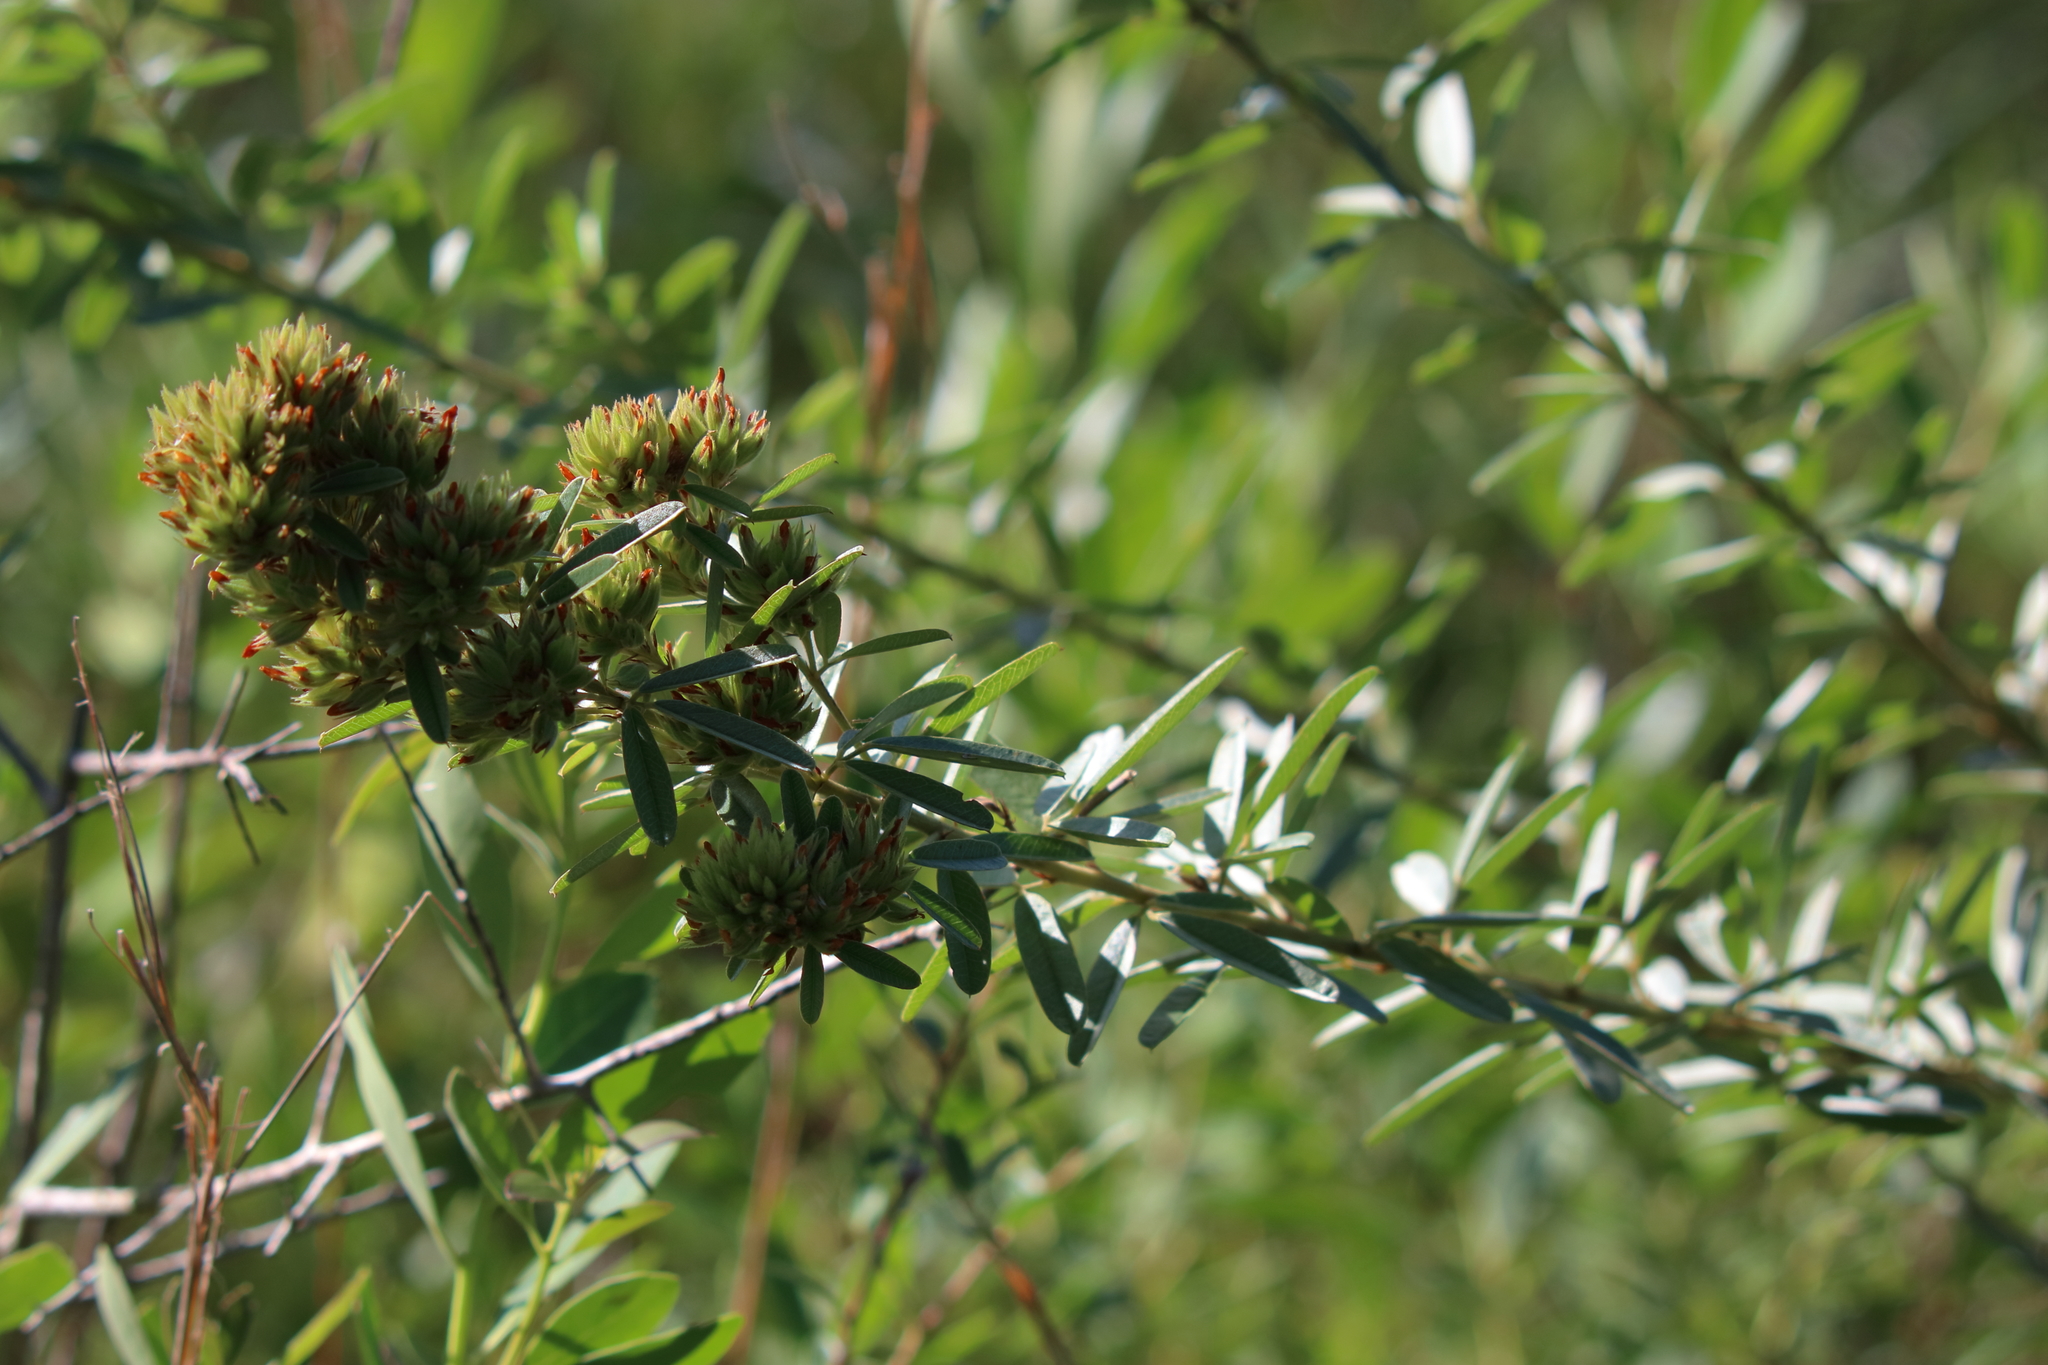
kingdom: Plantae
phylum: Tracheophyta
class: Magnoliopsida
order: Fabales
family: Fabaceae
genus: Lespedeza
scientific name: Lespedeza capitata
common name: Dusty clover
